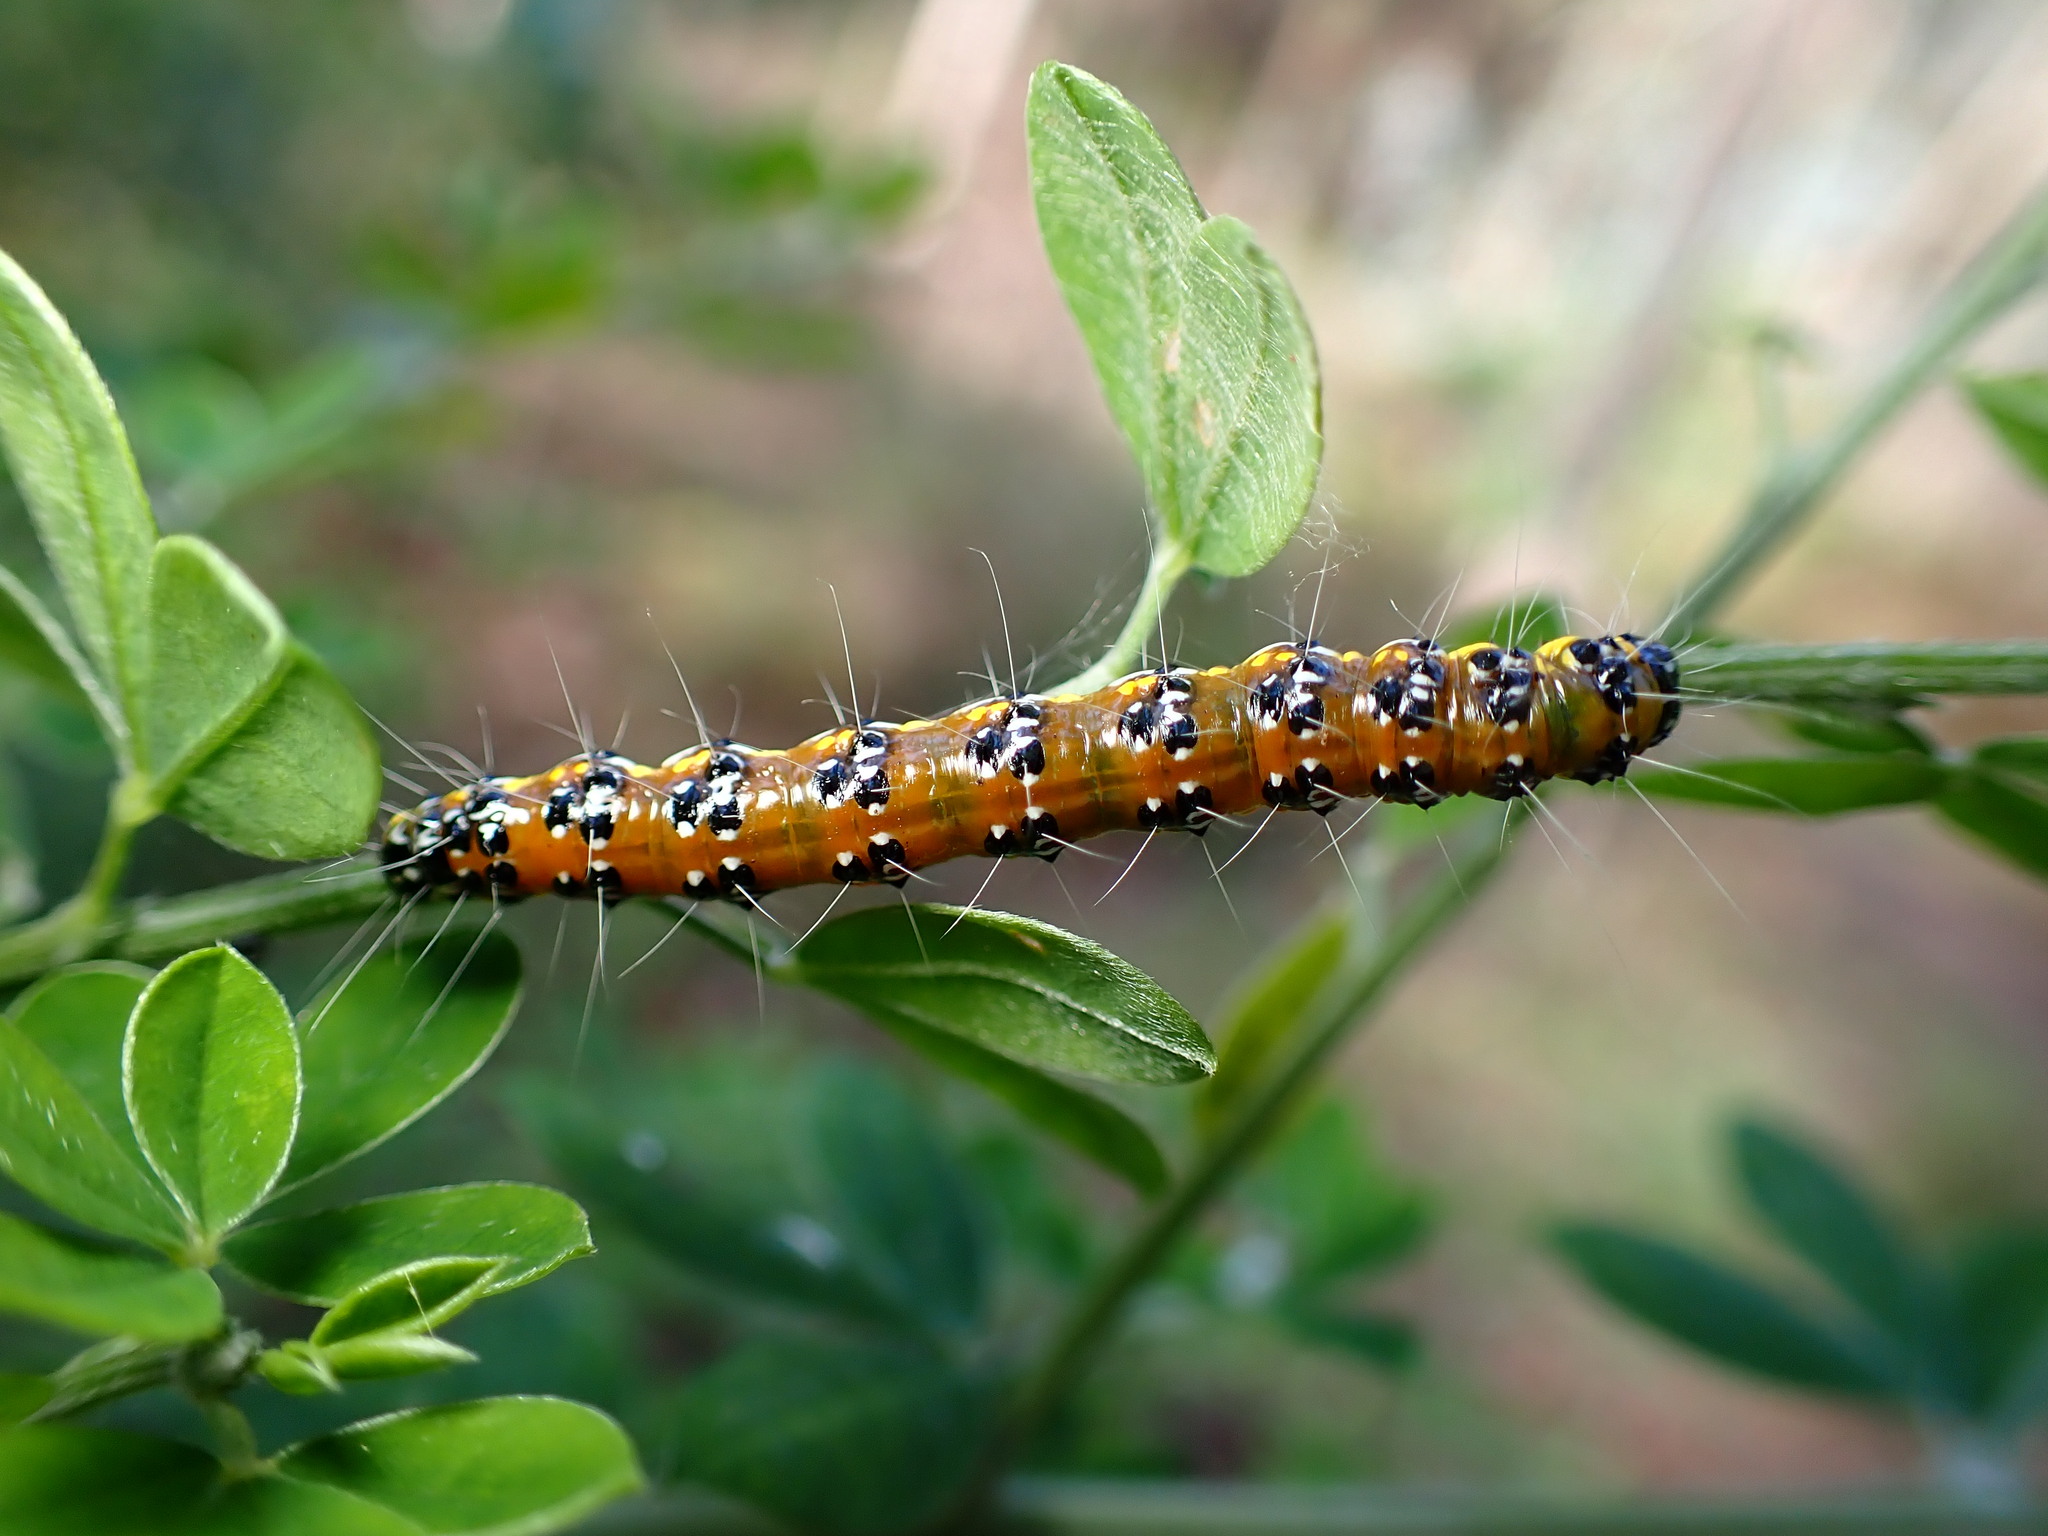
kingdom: Animalia
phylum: Arthropoda
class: Insecta
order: Lepidoptera
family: Crambidae
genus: Uresiphita
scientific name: Uresiphita reversalis
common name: Genista broom moth
